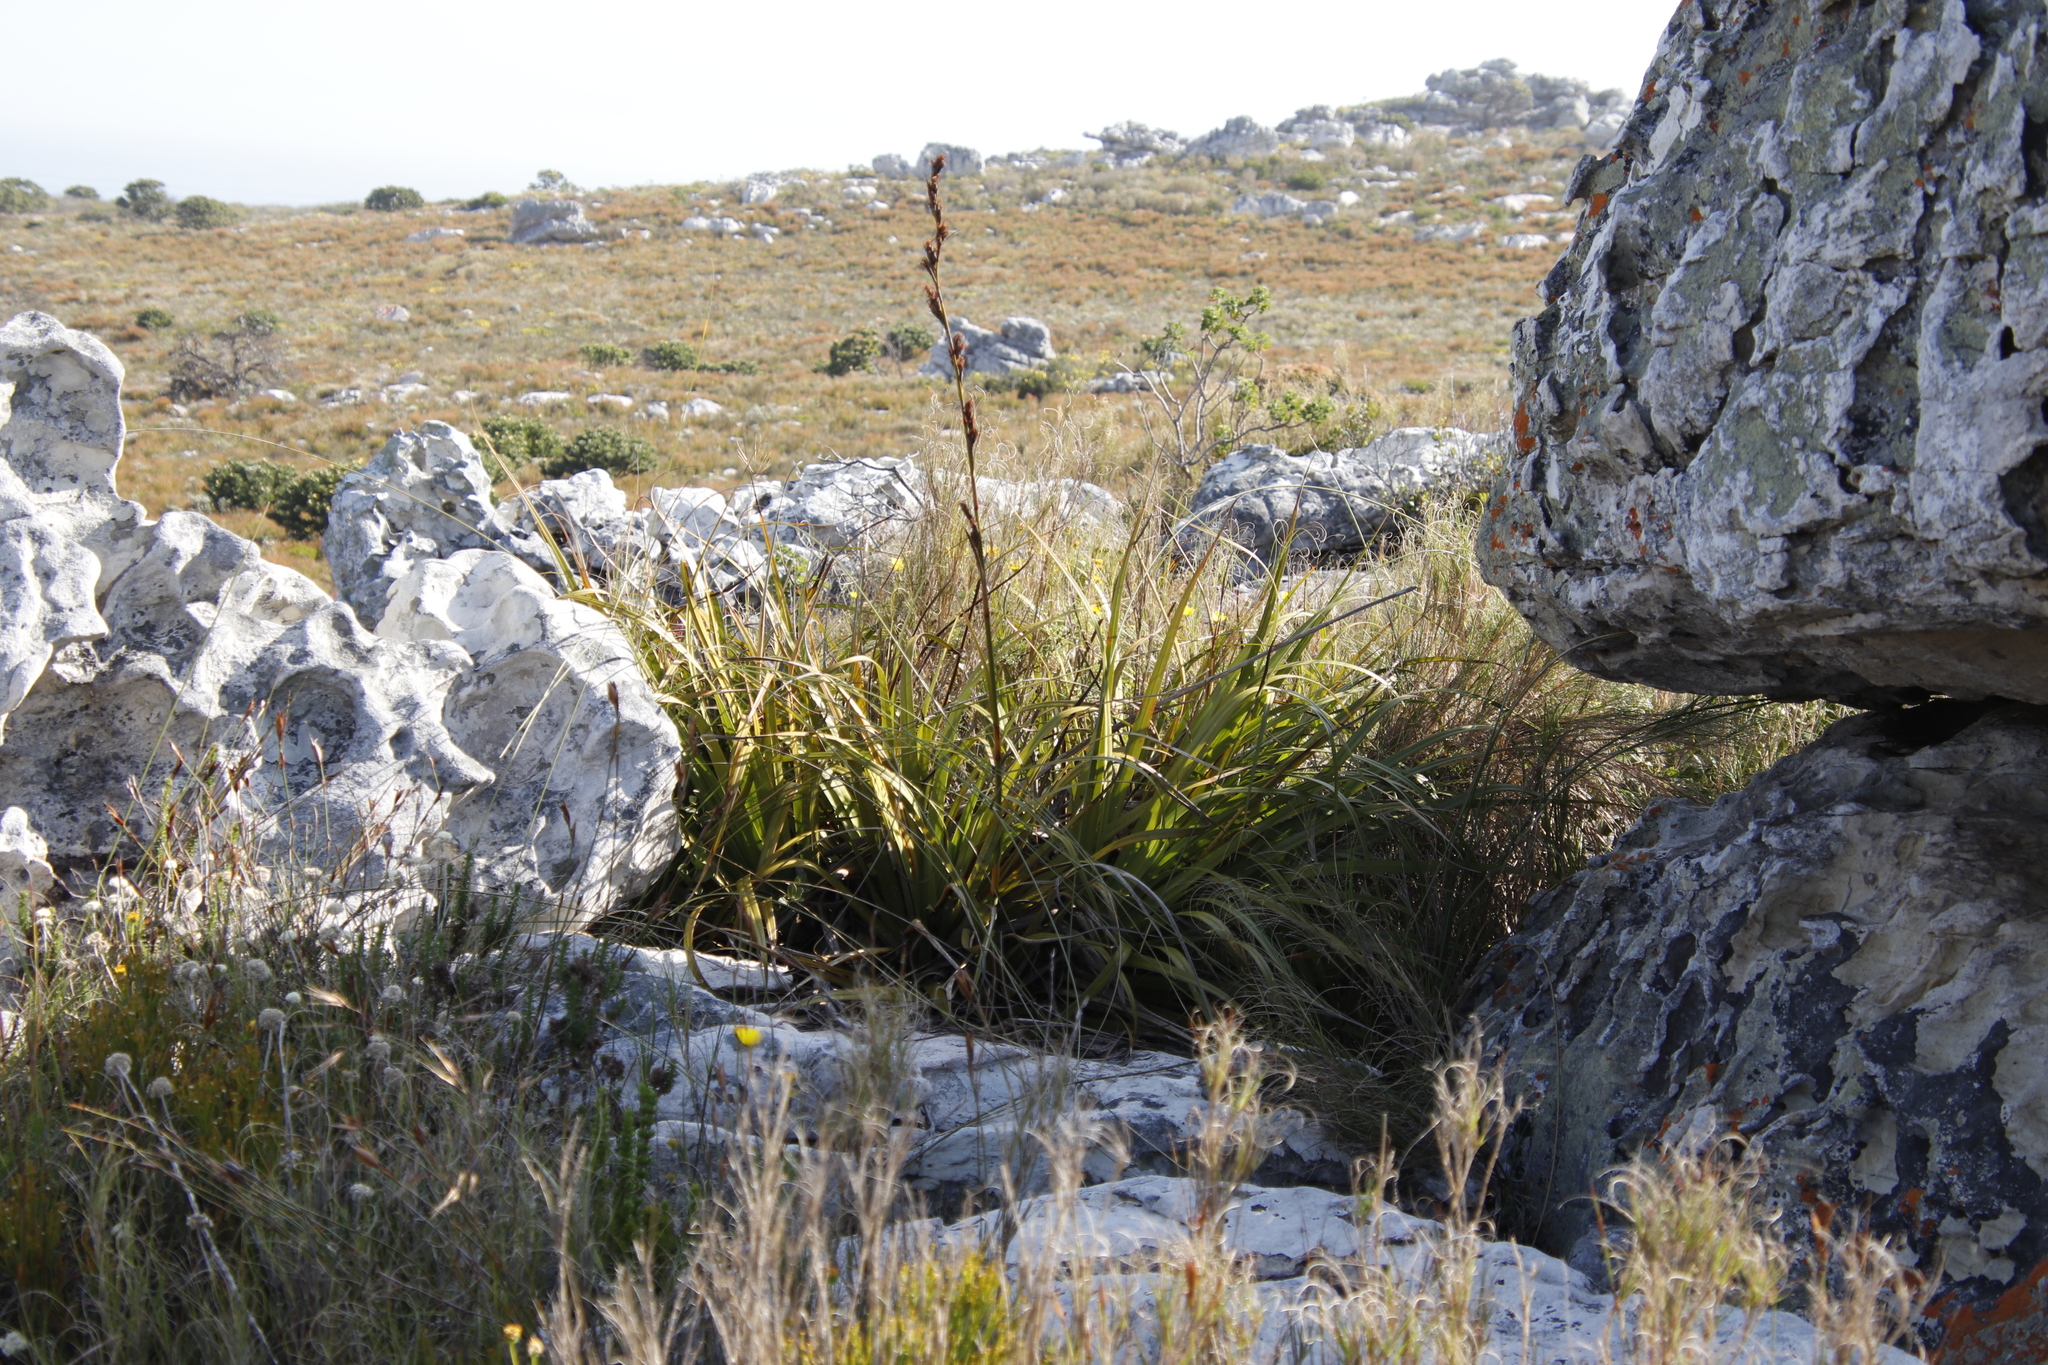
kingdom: Plantae
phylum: Tracheophyta
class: Liliopsida
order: Poales
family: Cyperaceae
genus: Tetraria
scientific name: Tetraria thermalis
